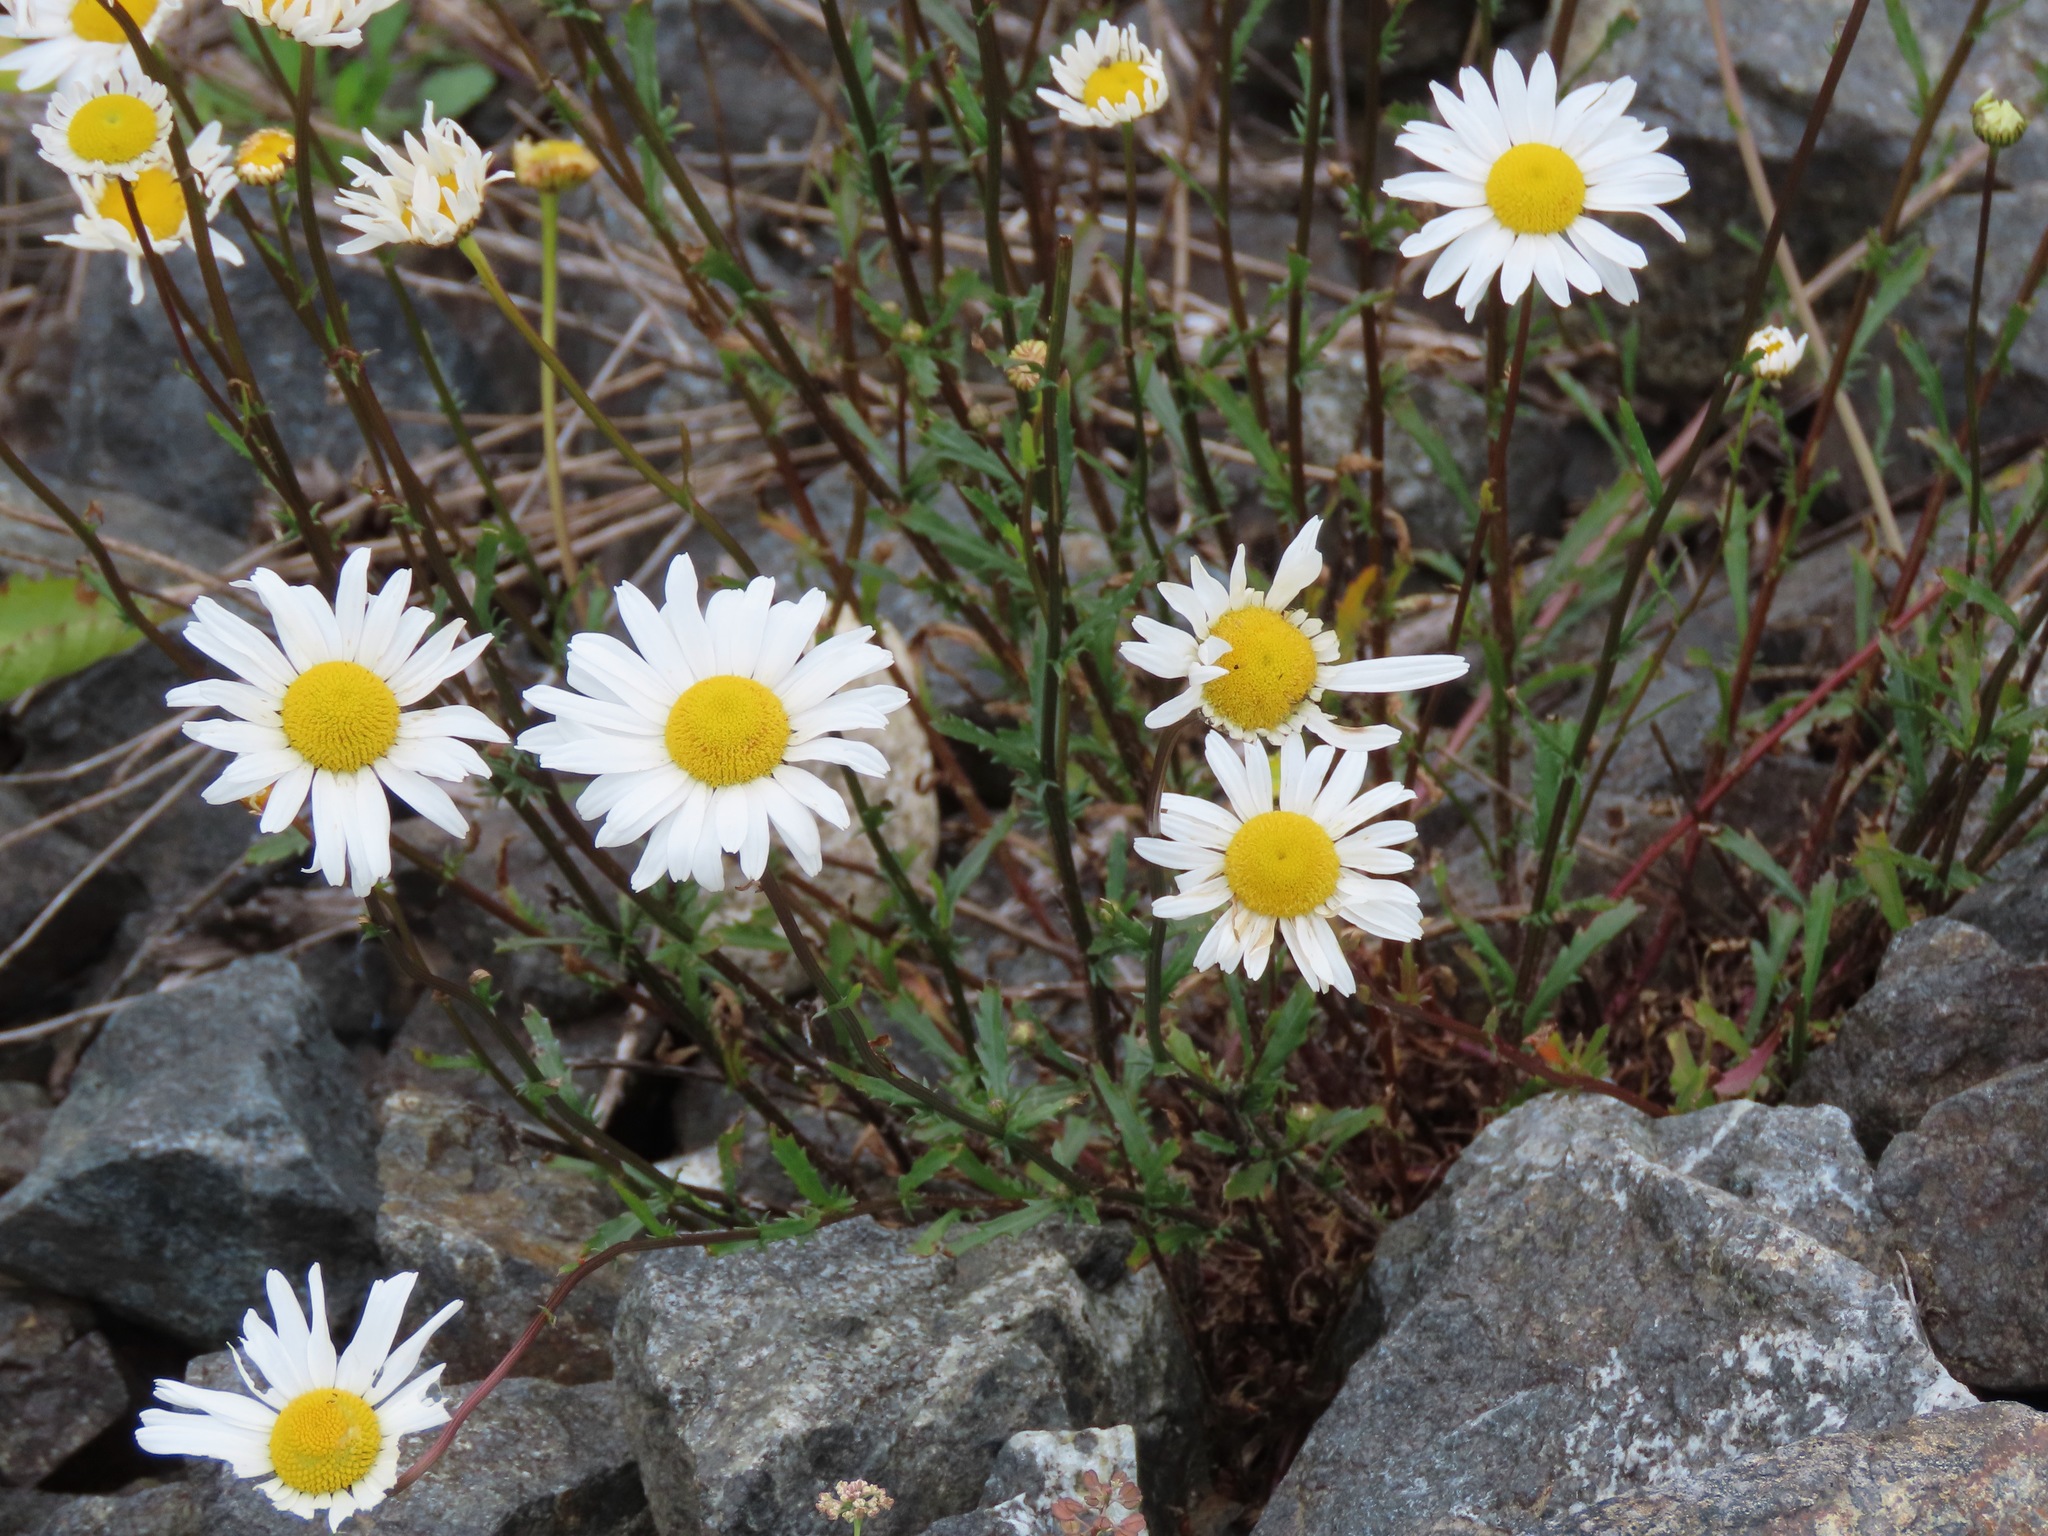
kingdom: Plantae
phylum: Tracheophyta
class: Magnoliopsida
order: Asterales
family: Asteraceae
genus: Leucanthemum
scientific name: Leucanthemum vulgare
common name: Oxeye daisy
